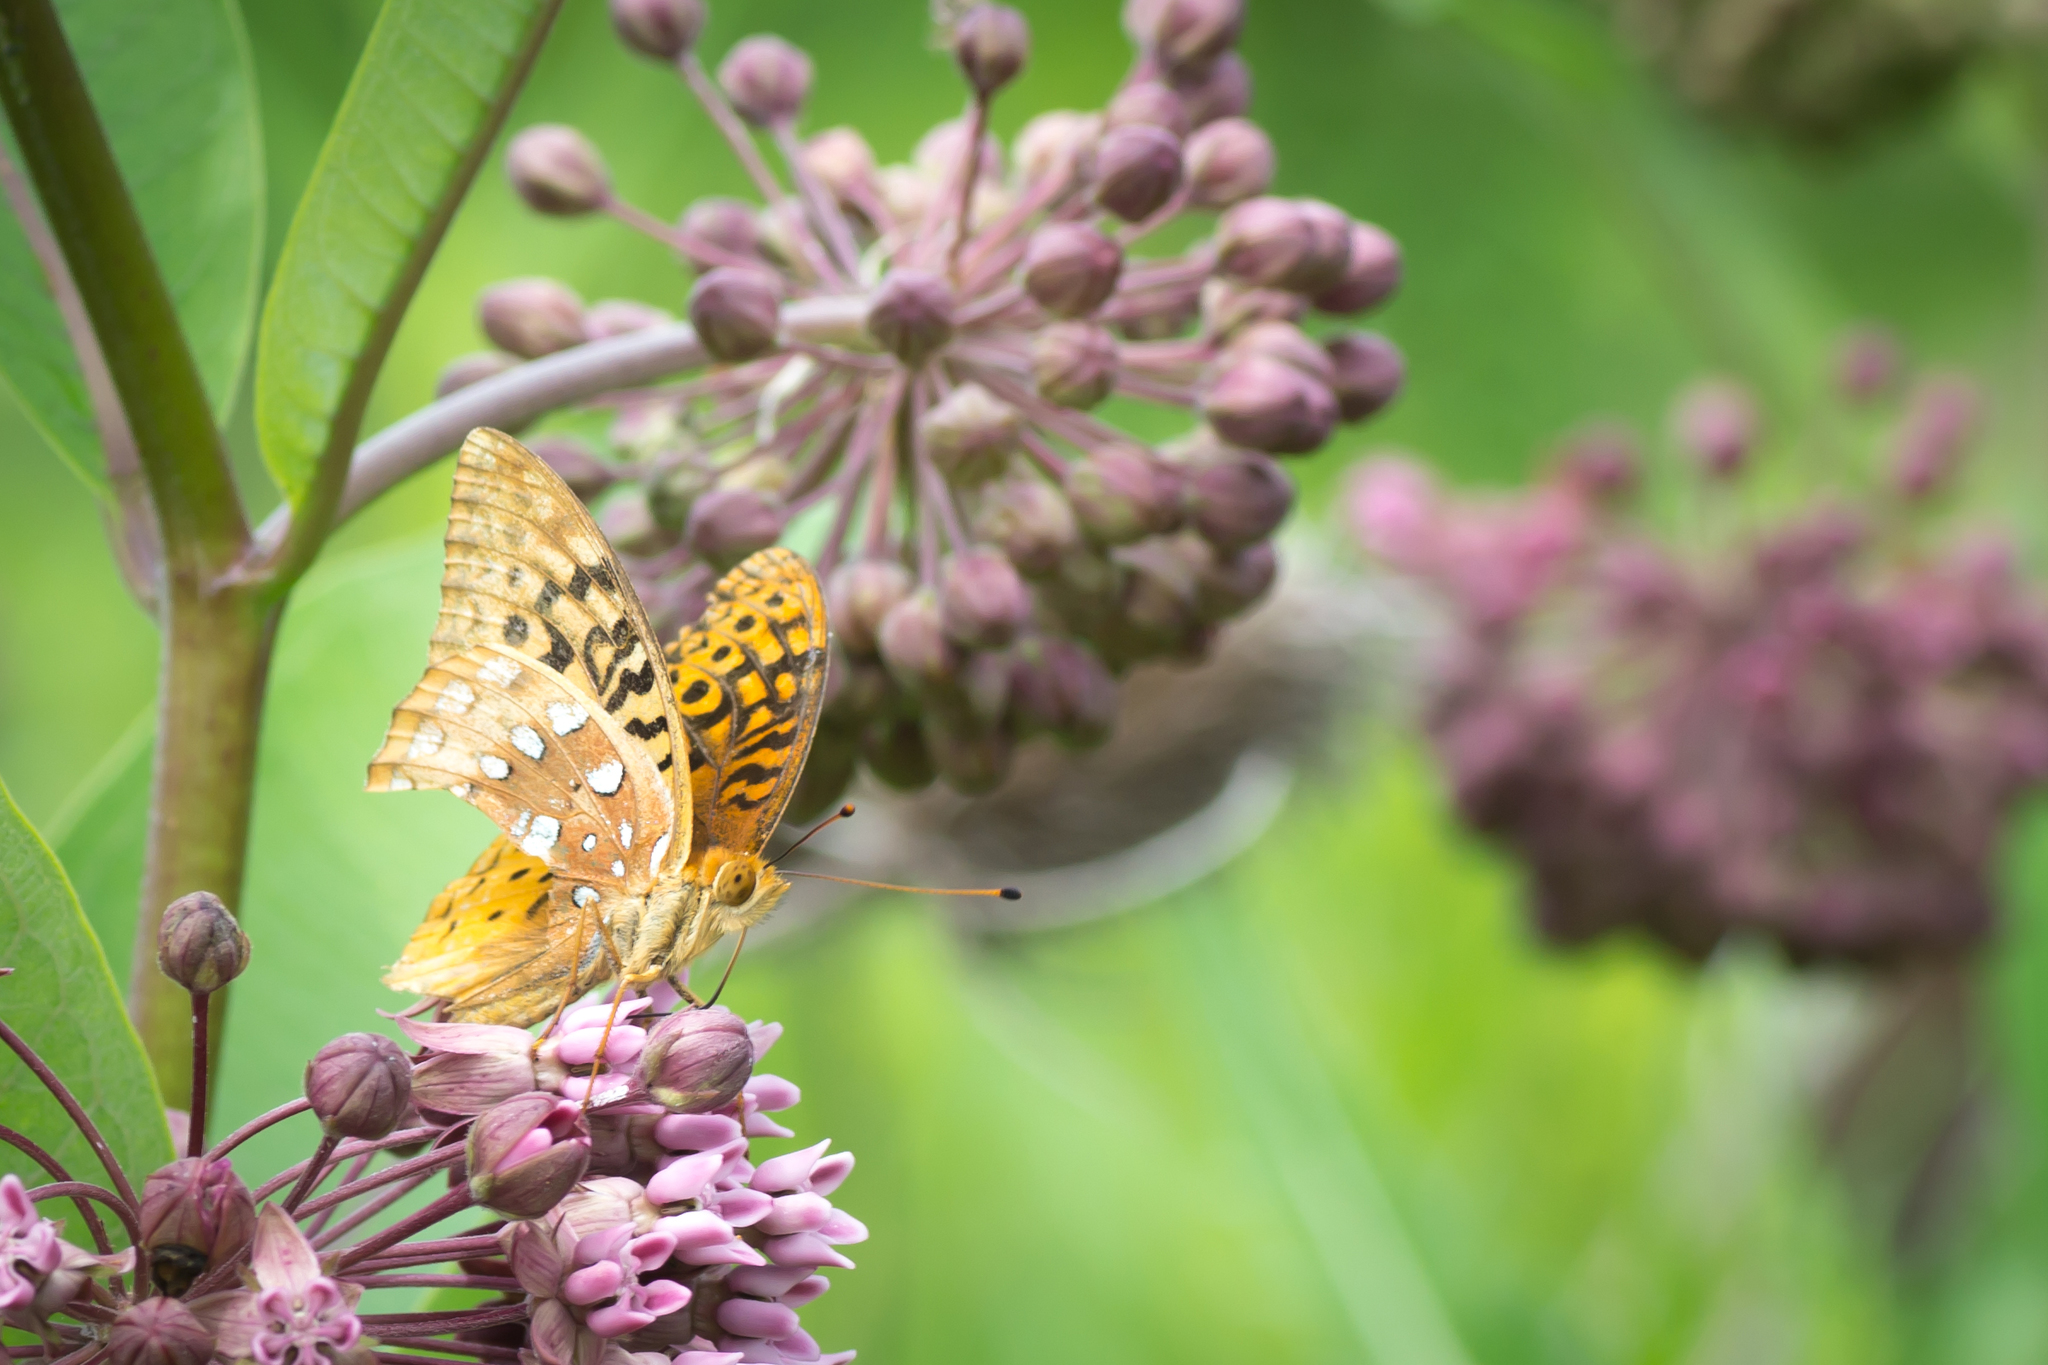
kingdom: Animalia
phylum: Arthropoda
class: Insecta
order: Lepidoptera
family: Nymphalidae
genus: Speyeria
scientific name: Speyeria cybele
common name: Great spangled fritillary
